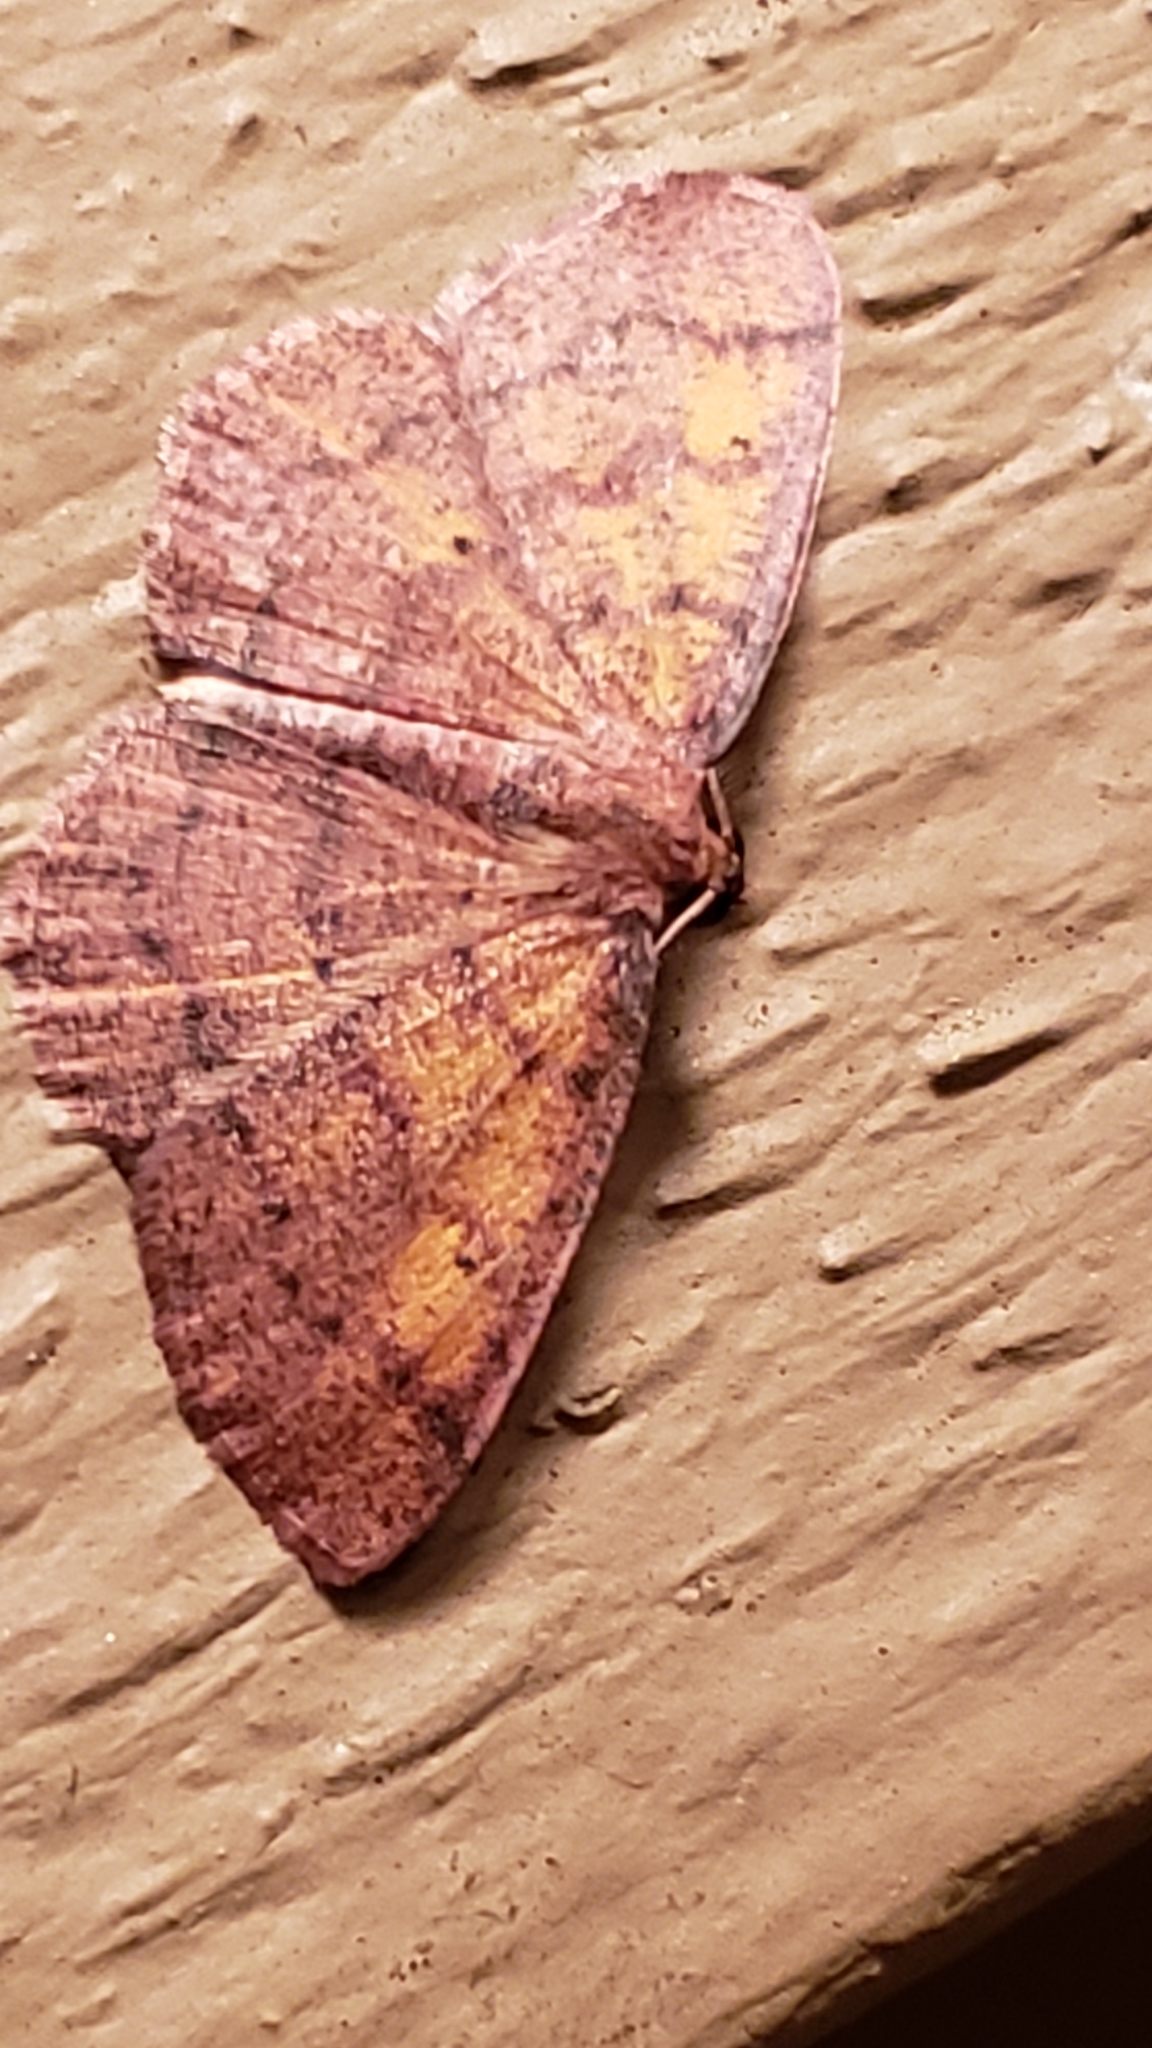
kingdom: Animalia
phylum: Arthropoda
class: Insecta
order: Lepidoptera
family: Geometridae
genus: Ilexia
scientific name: Ilexia intractata
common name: Black-dotted ruddy moth
